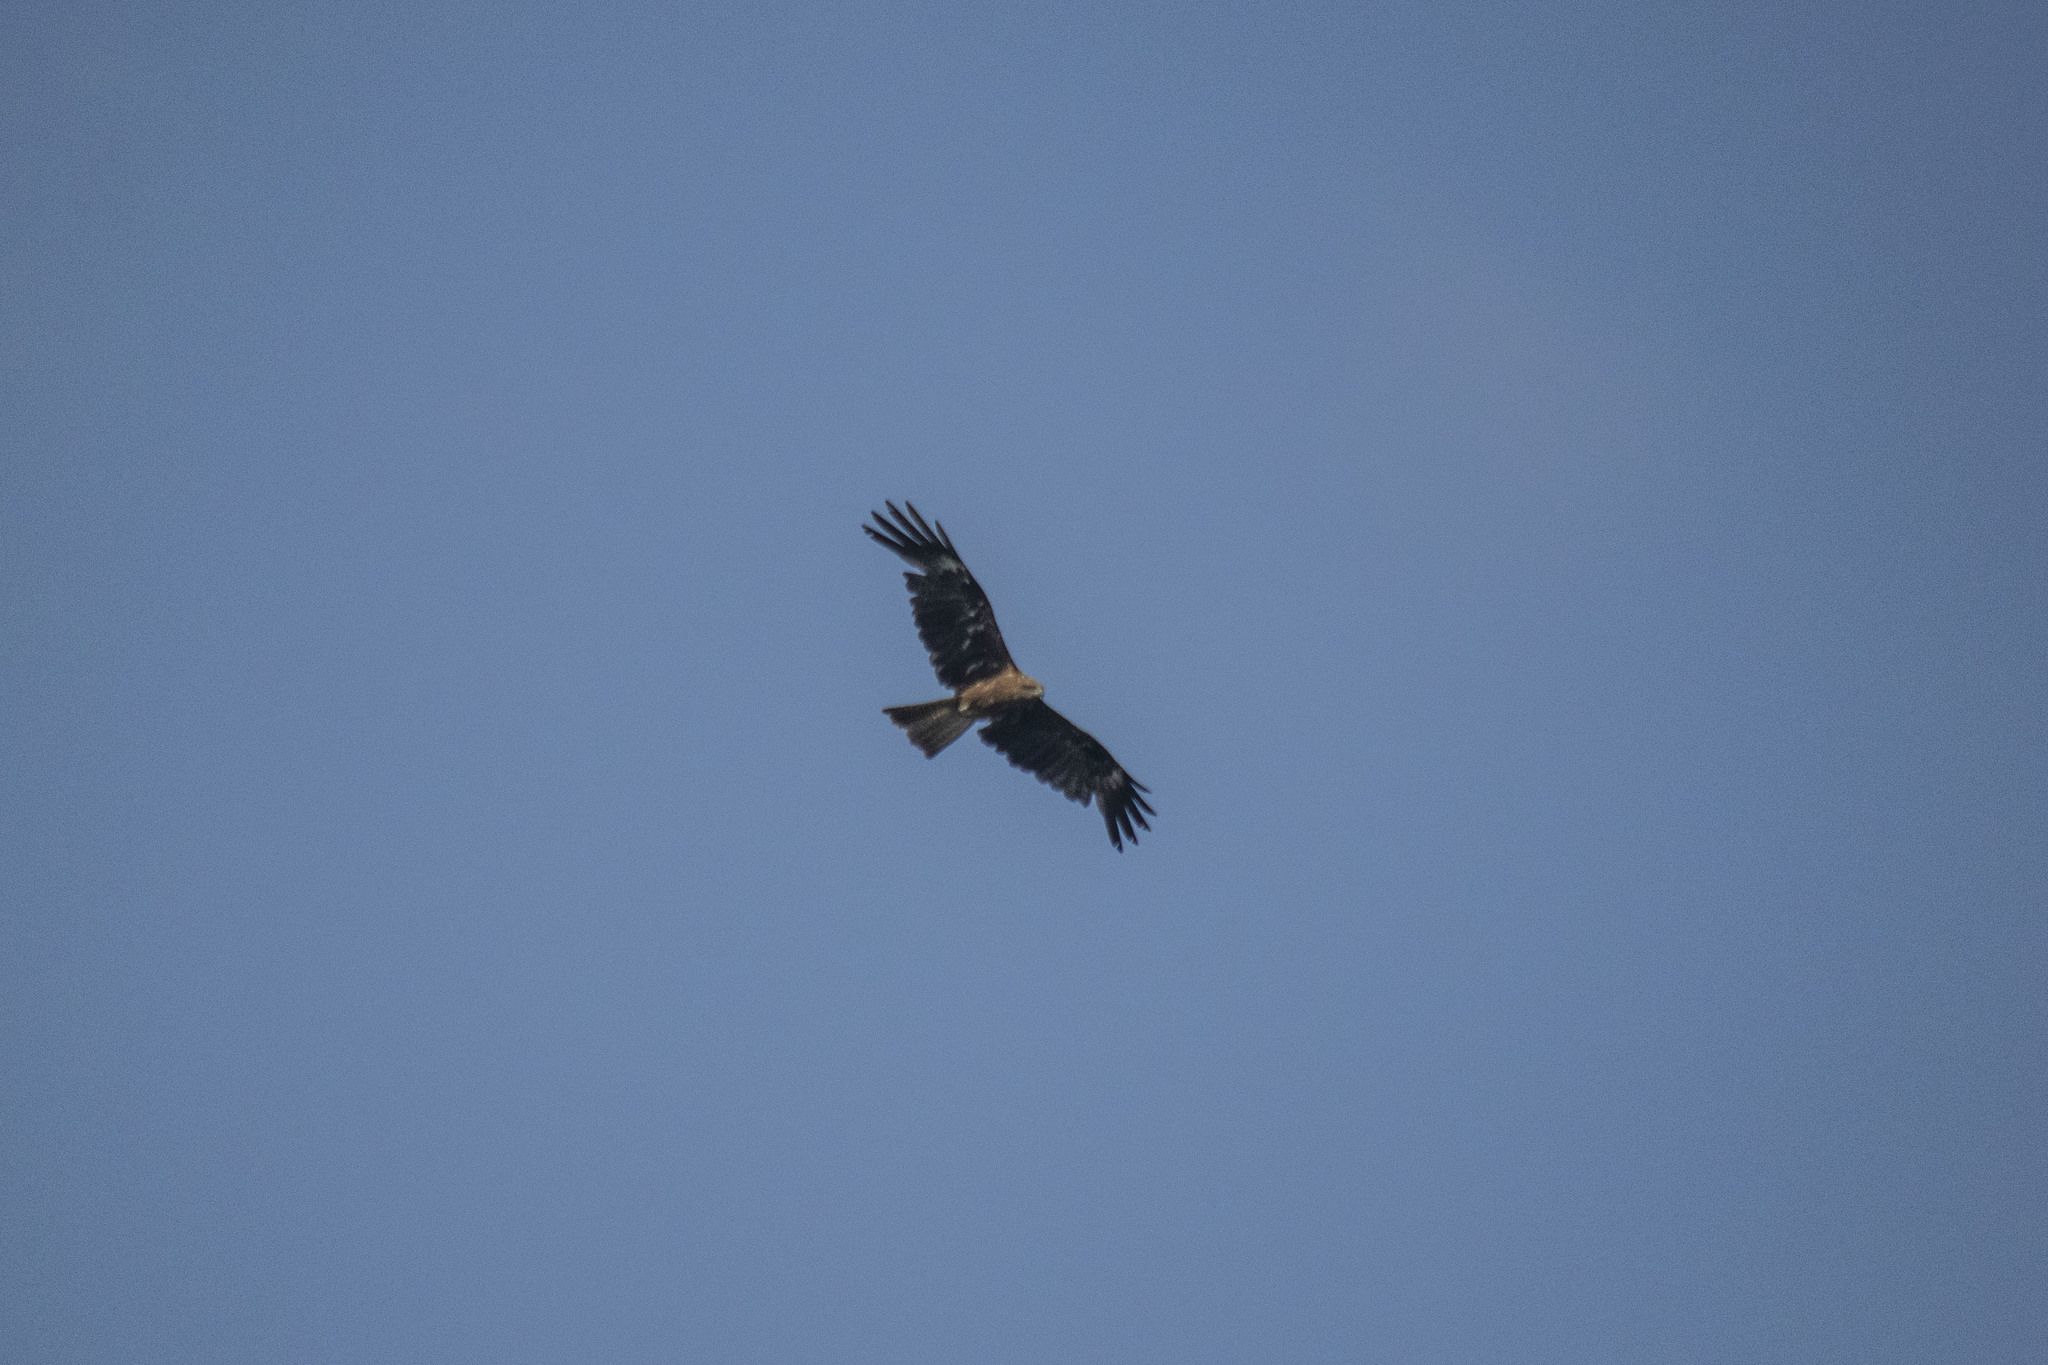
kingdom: Animalia
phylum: Chordata
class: Aves
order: Accipitriformes
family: Accipitridae
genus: Milvus
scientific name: Milvus migrans
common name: Black kite
